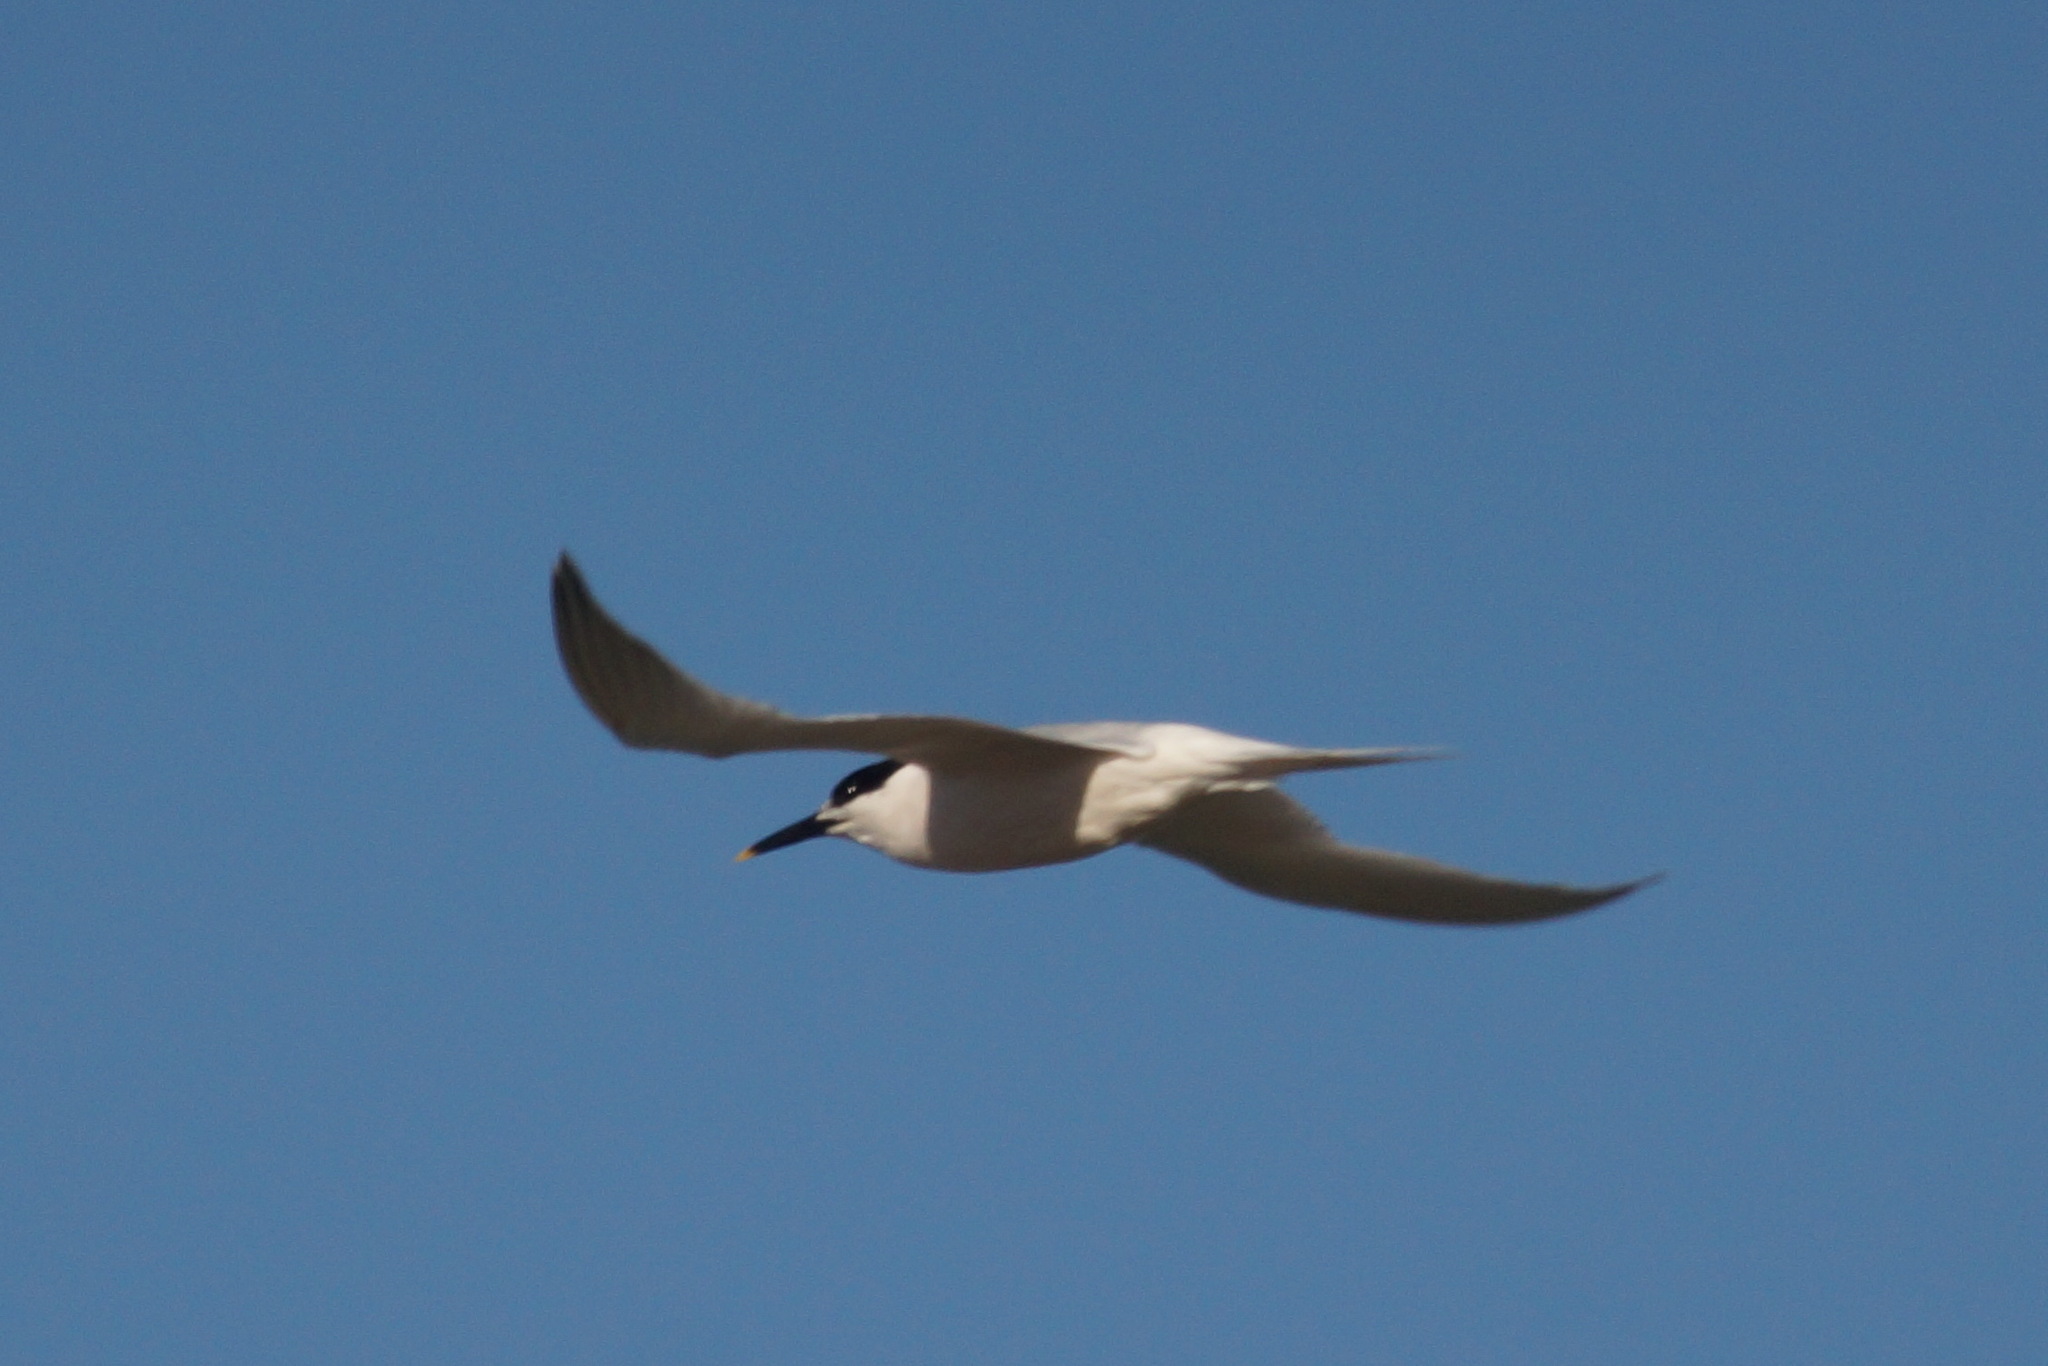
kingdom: Animalia
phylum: Chordata
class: Aves
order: Charadriiformes
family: Laridae
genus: Thalasseus
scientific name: Thalasseus sandvicensis
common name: Sandwich tern
